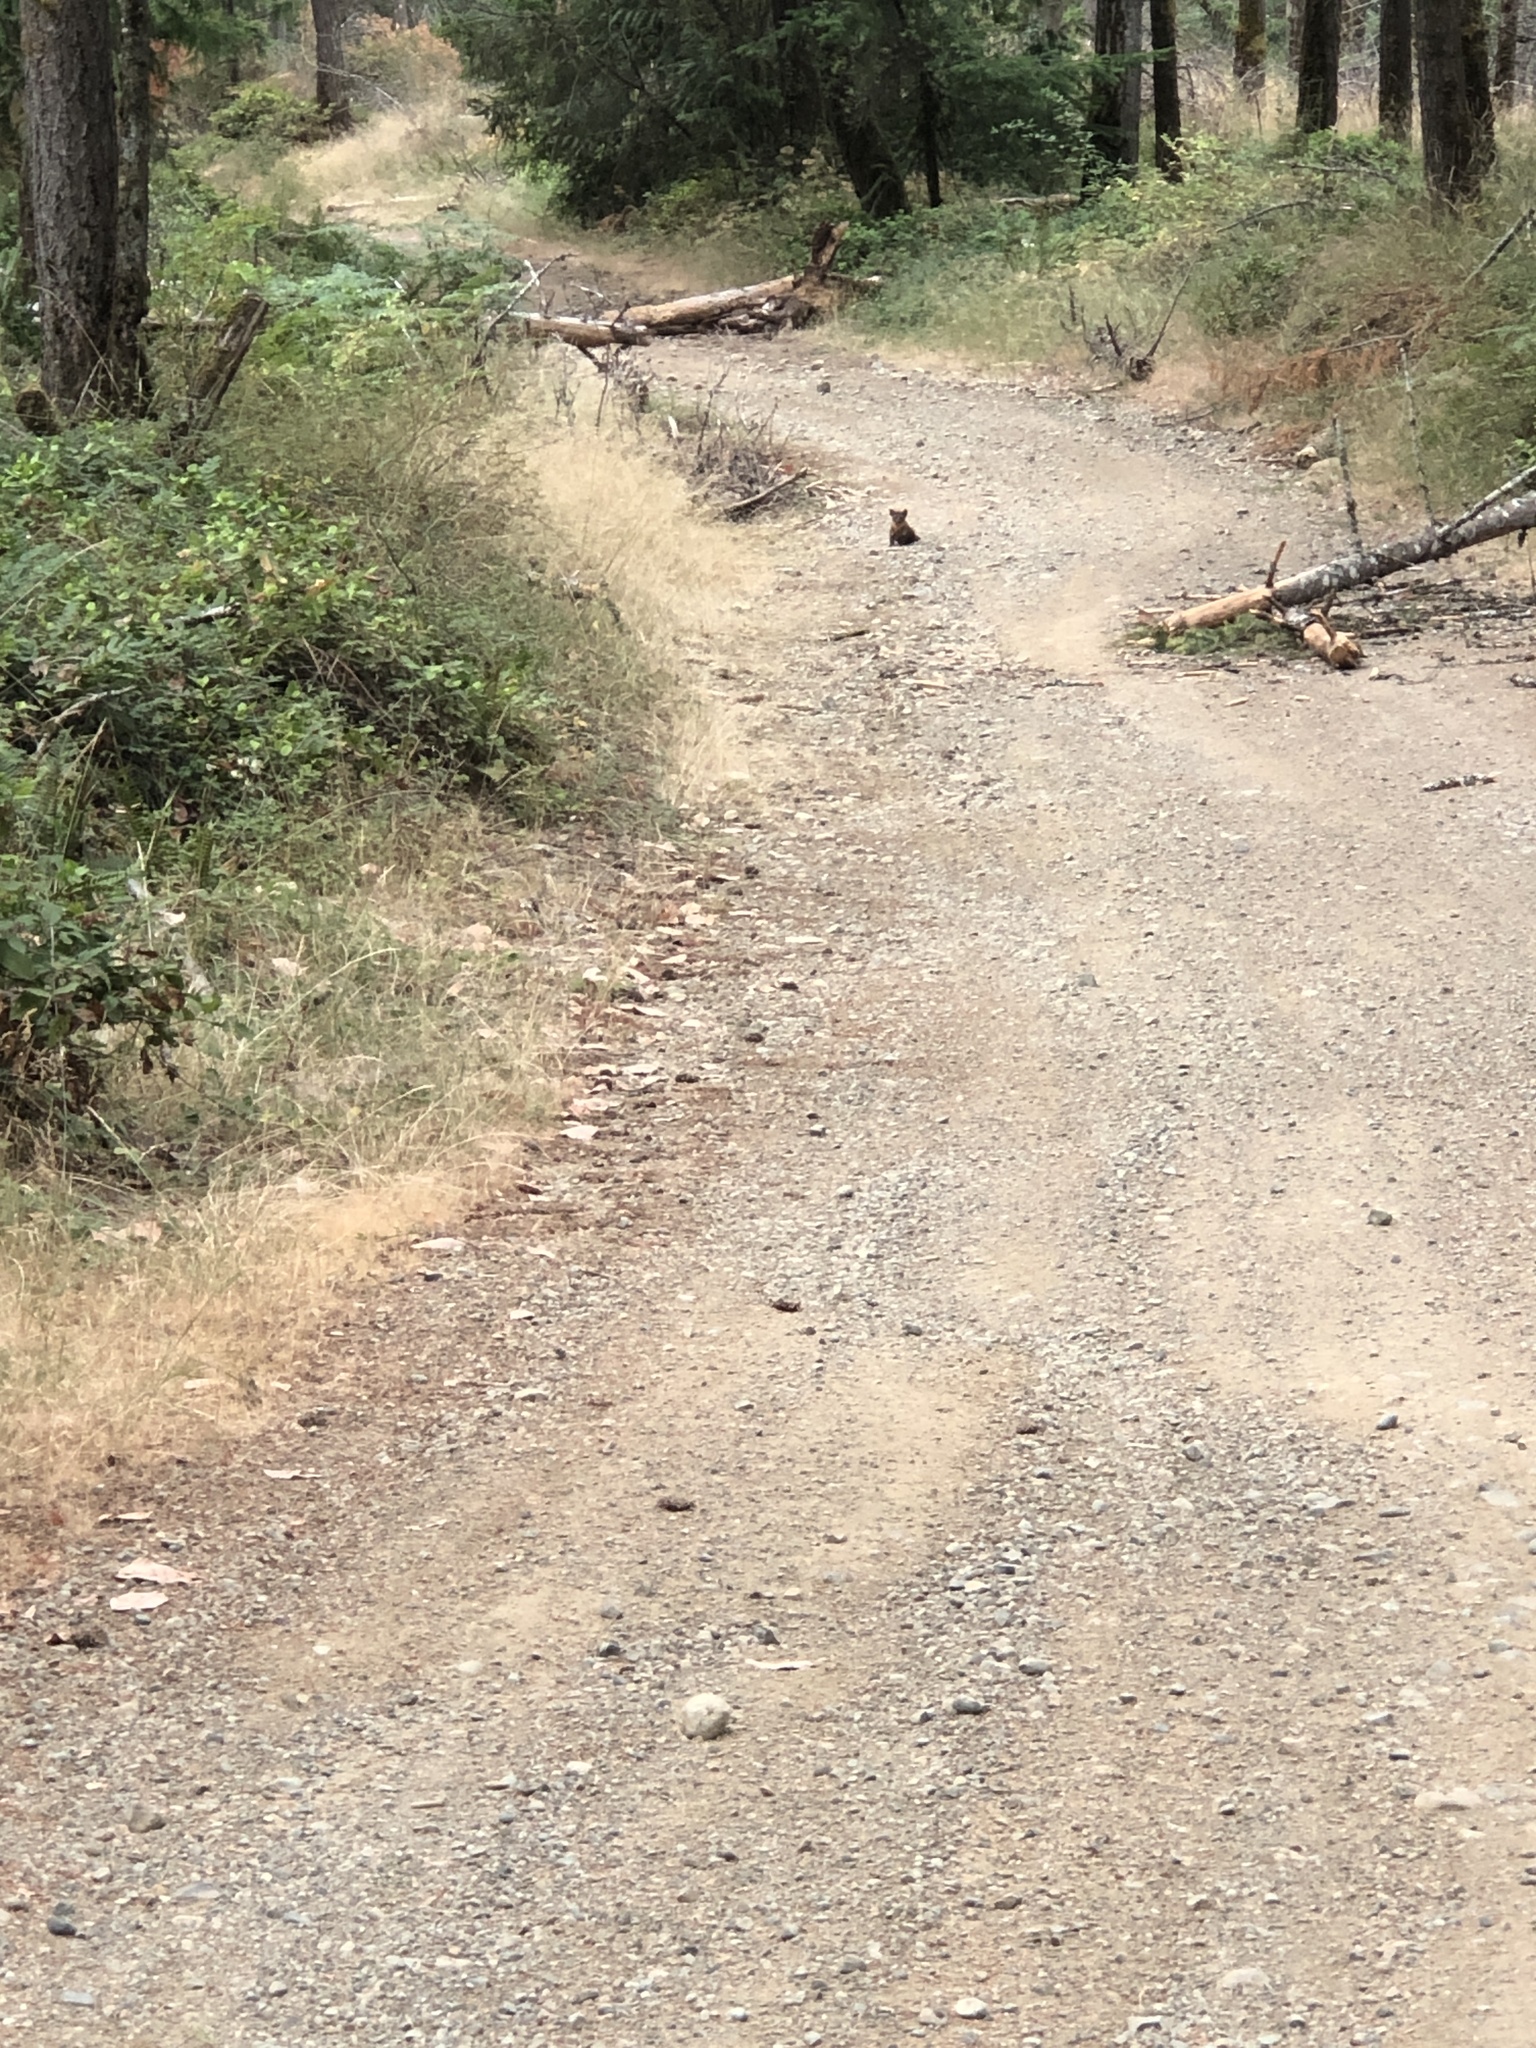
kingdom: Animalia
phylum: Chordata
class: Mammalia
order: Carnivora
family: Mustelidae
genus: Martes
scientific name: Martes caurina
